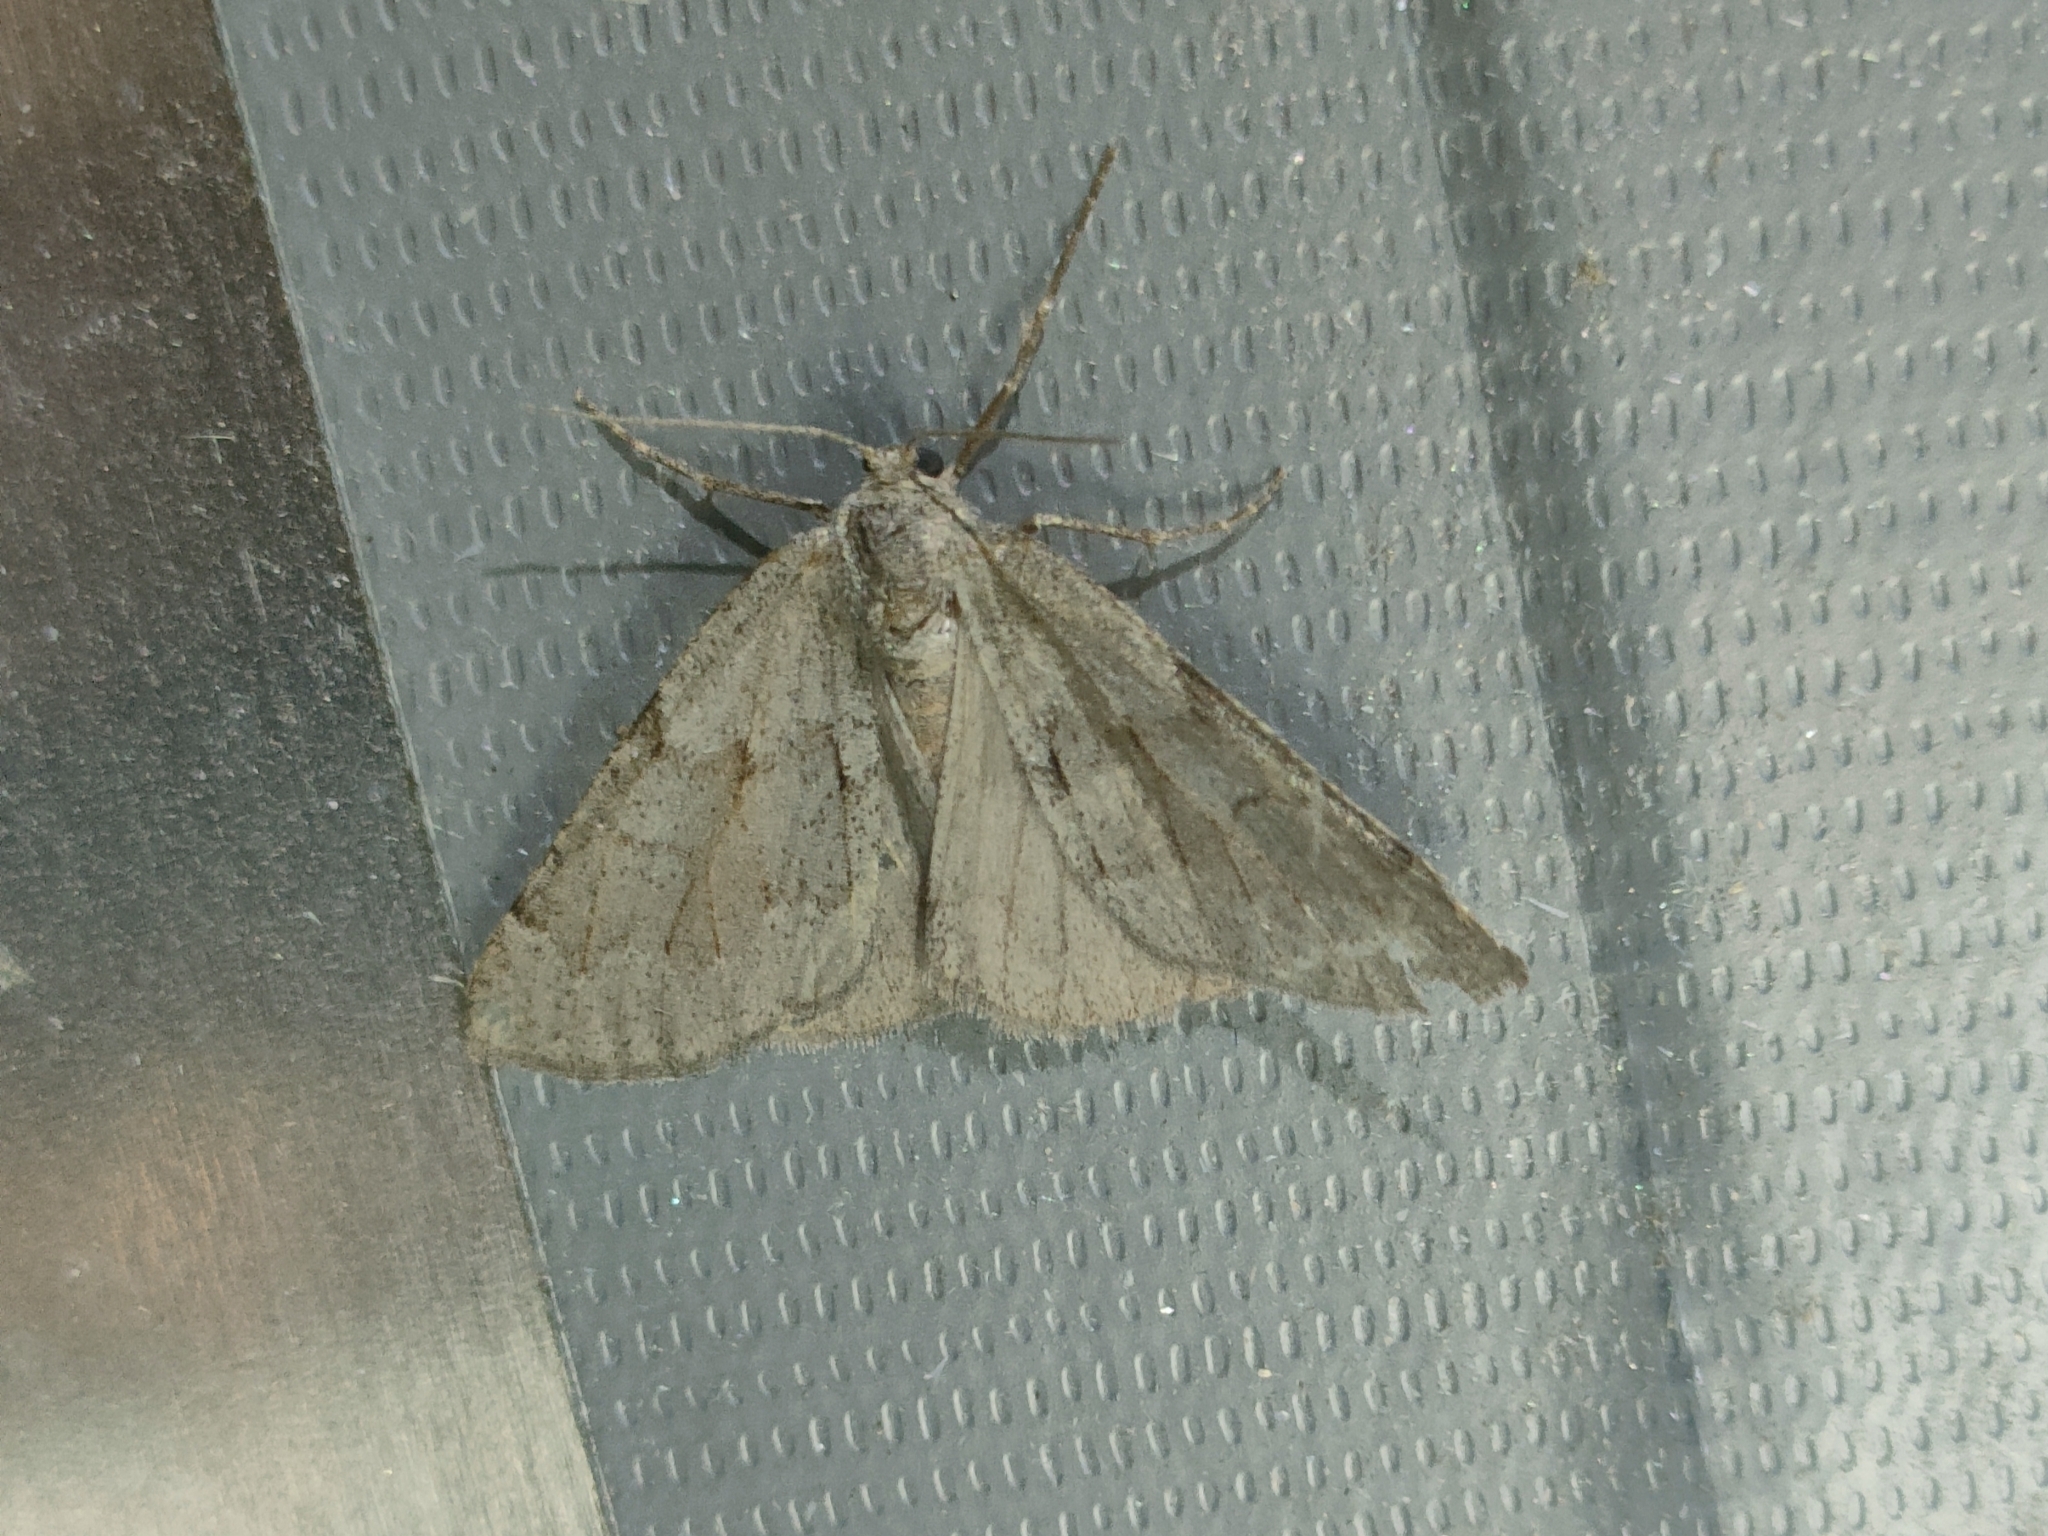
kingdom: Animalia
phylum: Arthropoda
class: Insecta
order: Lepidoptera
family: Geometridae
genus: Adalbertia
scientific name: Adalbertia castiliaria
